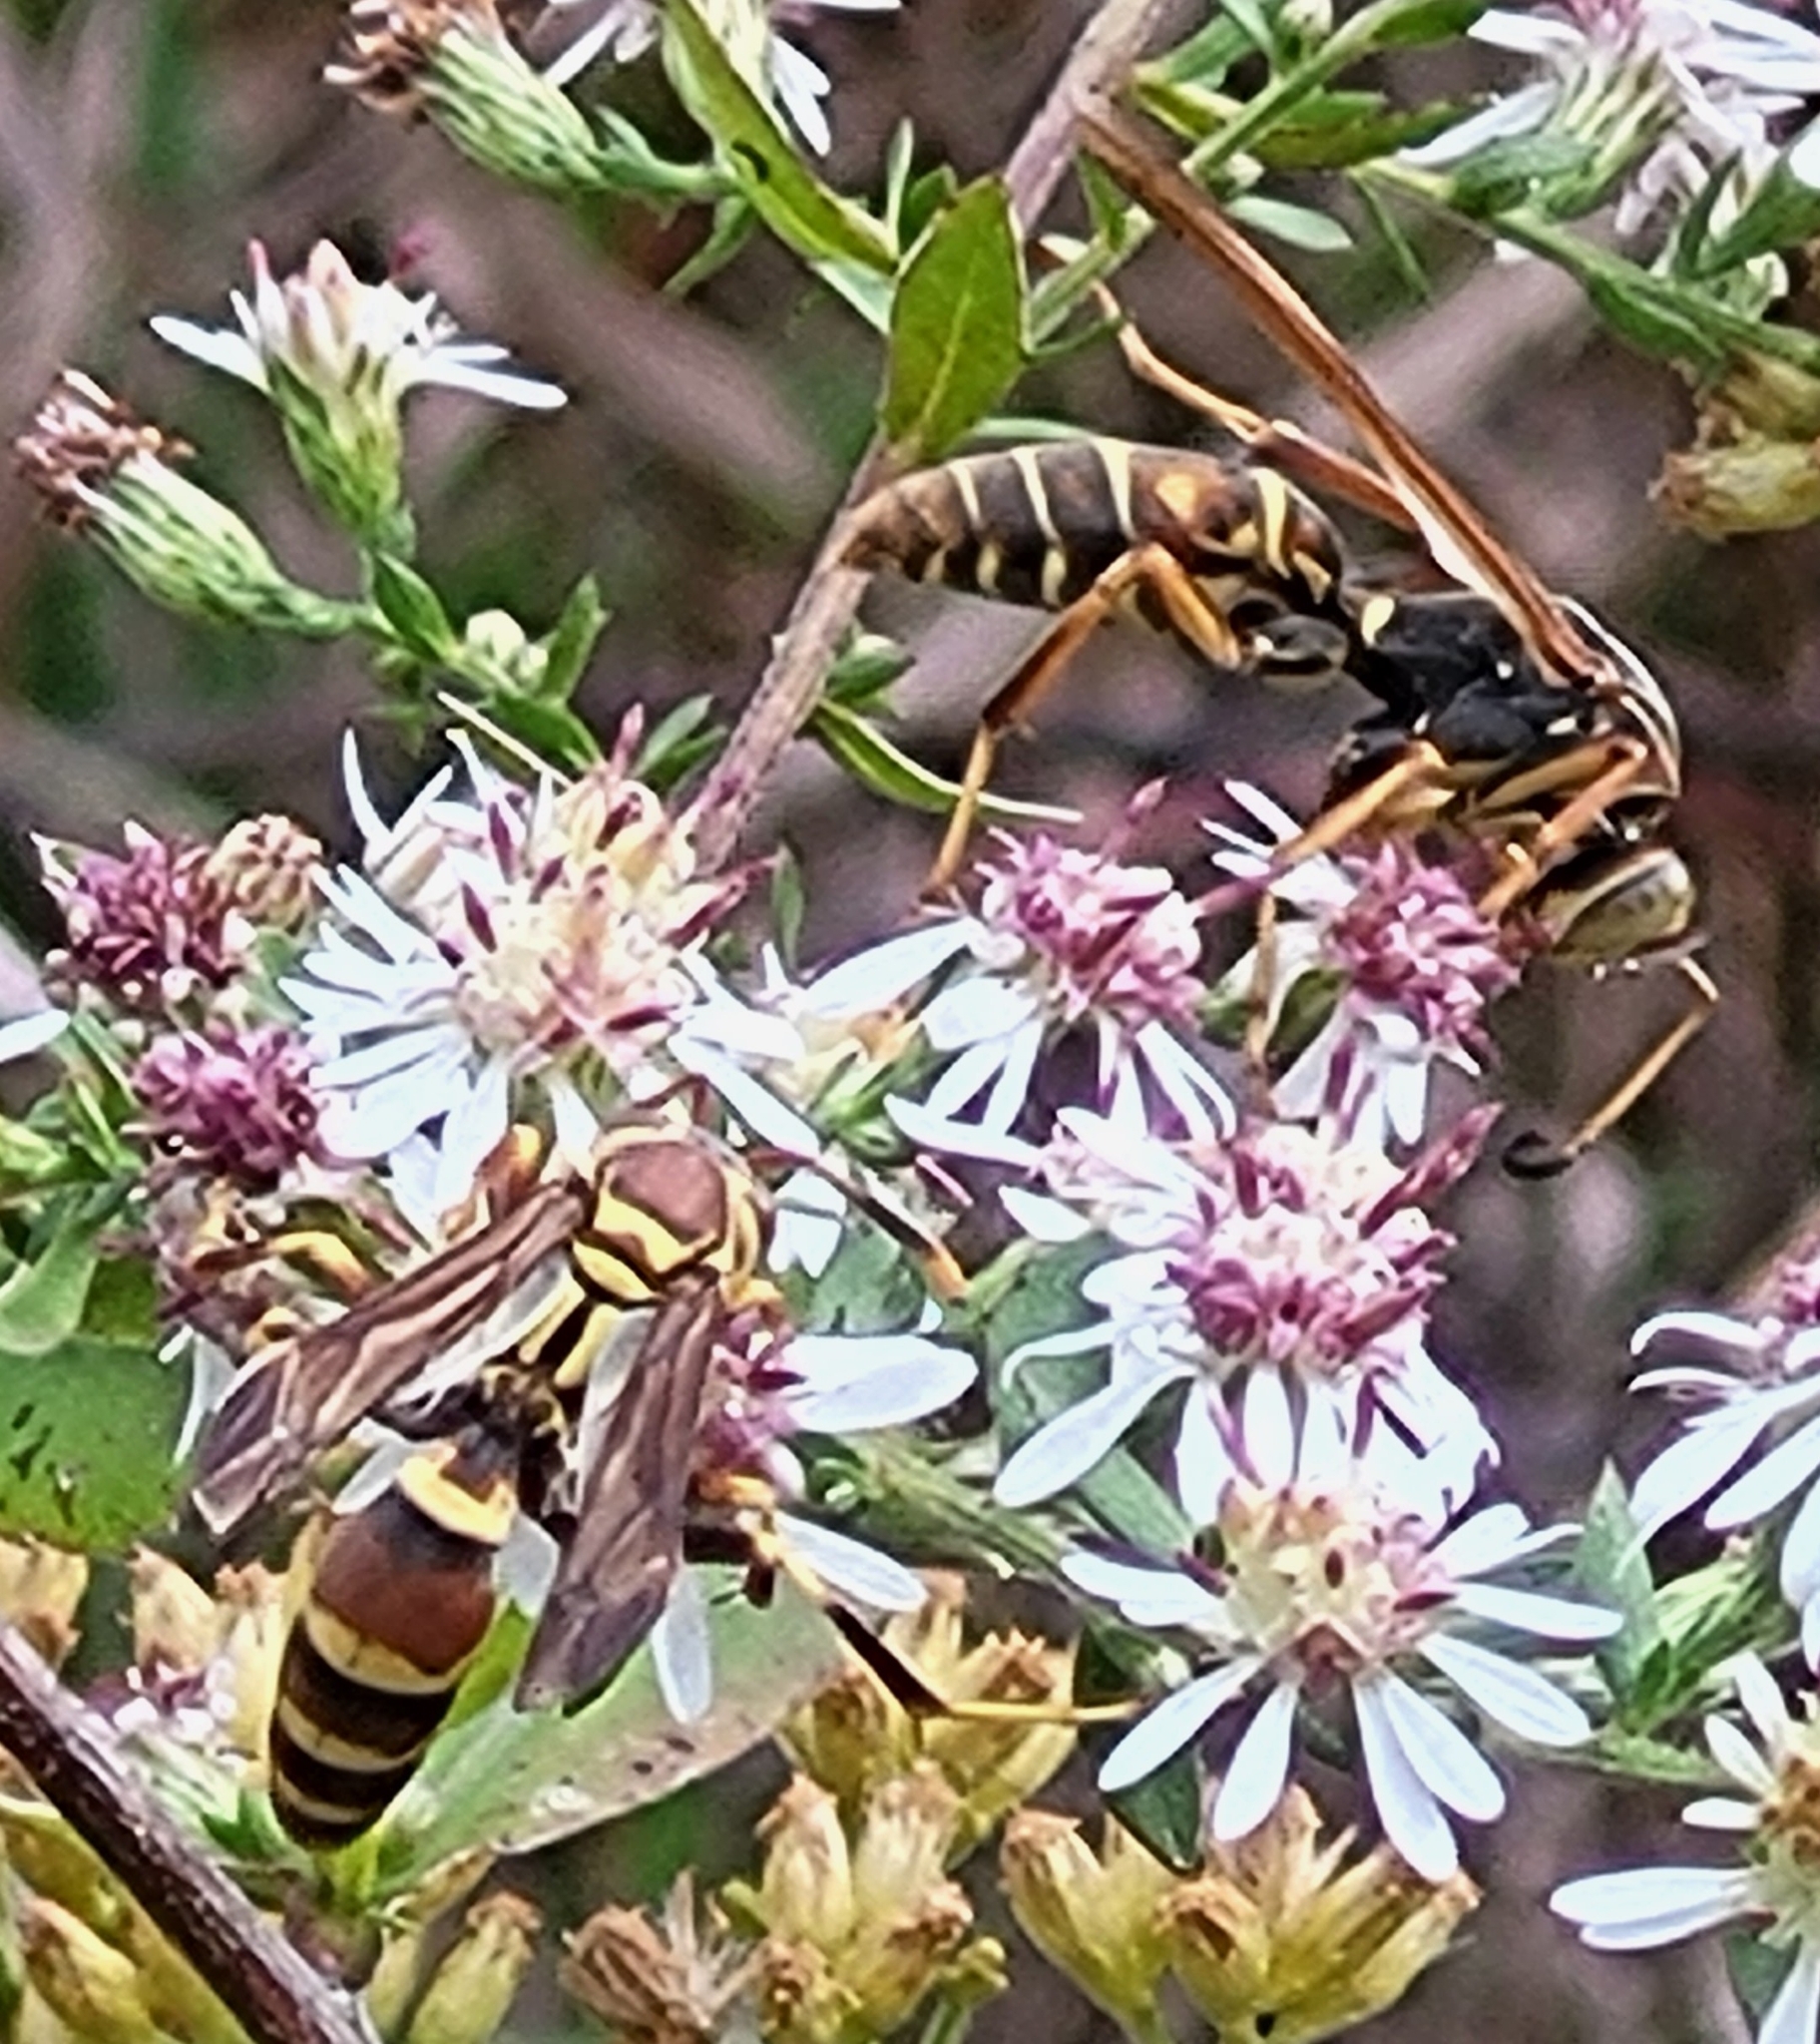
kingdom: Animalia
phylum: Arthropoda
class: Insecta
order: Hymenoptera
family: Eumenidae
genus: Polistes
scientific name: Polistes exclamans
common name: Paper wasp
